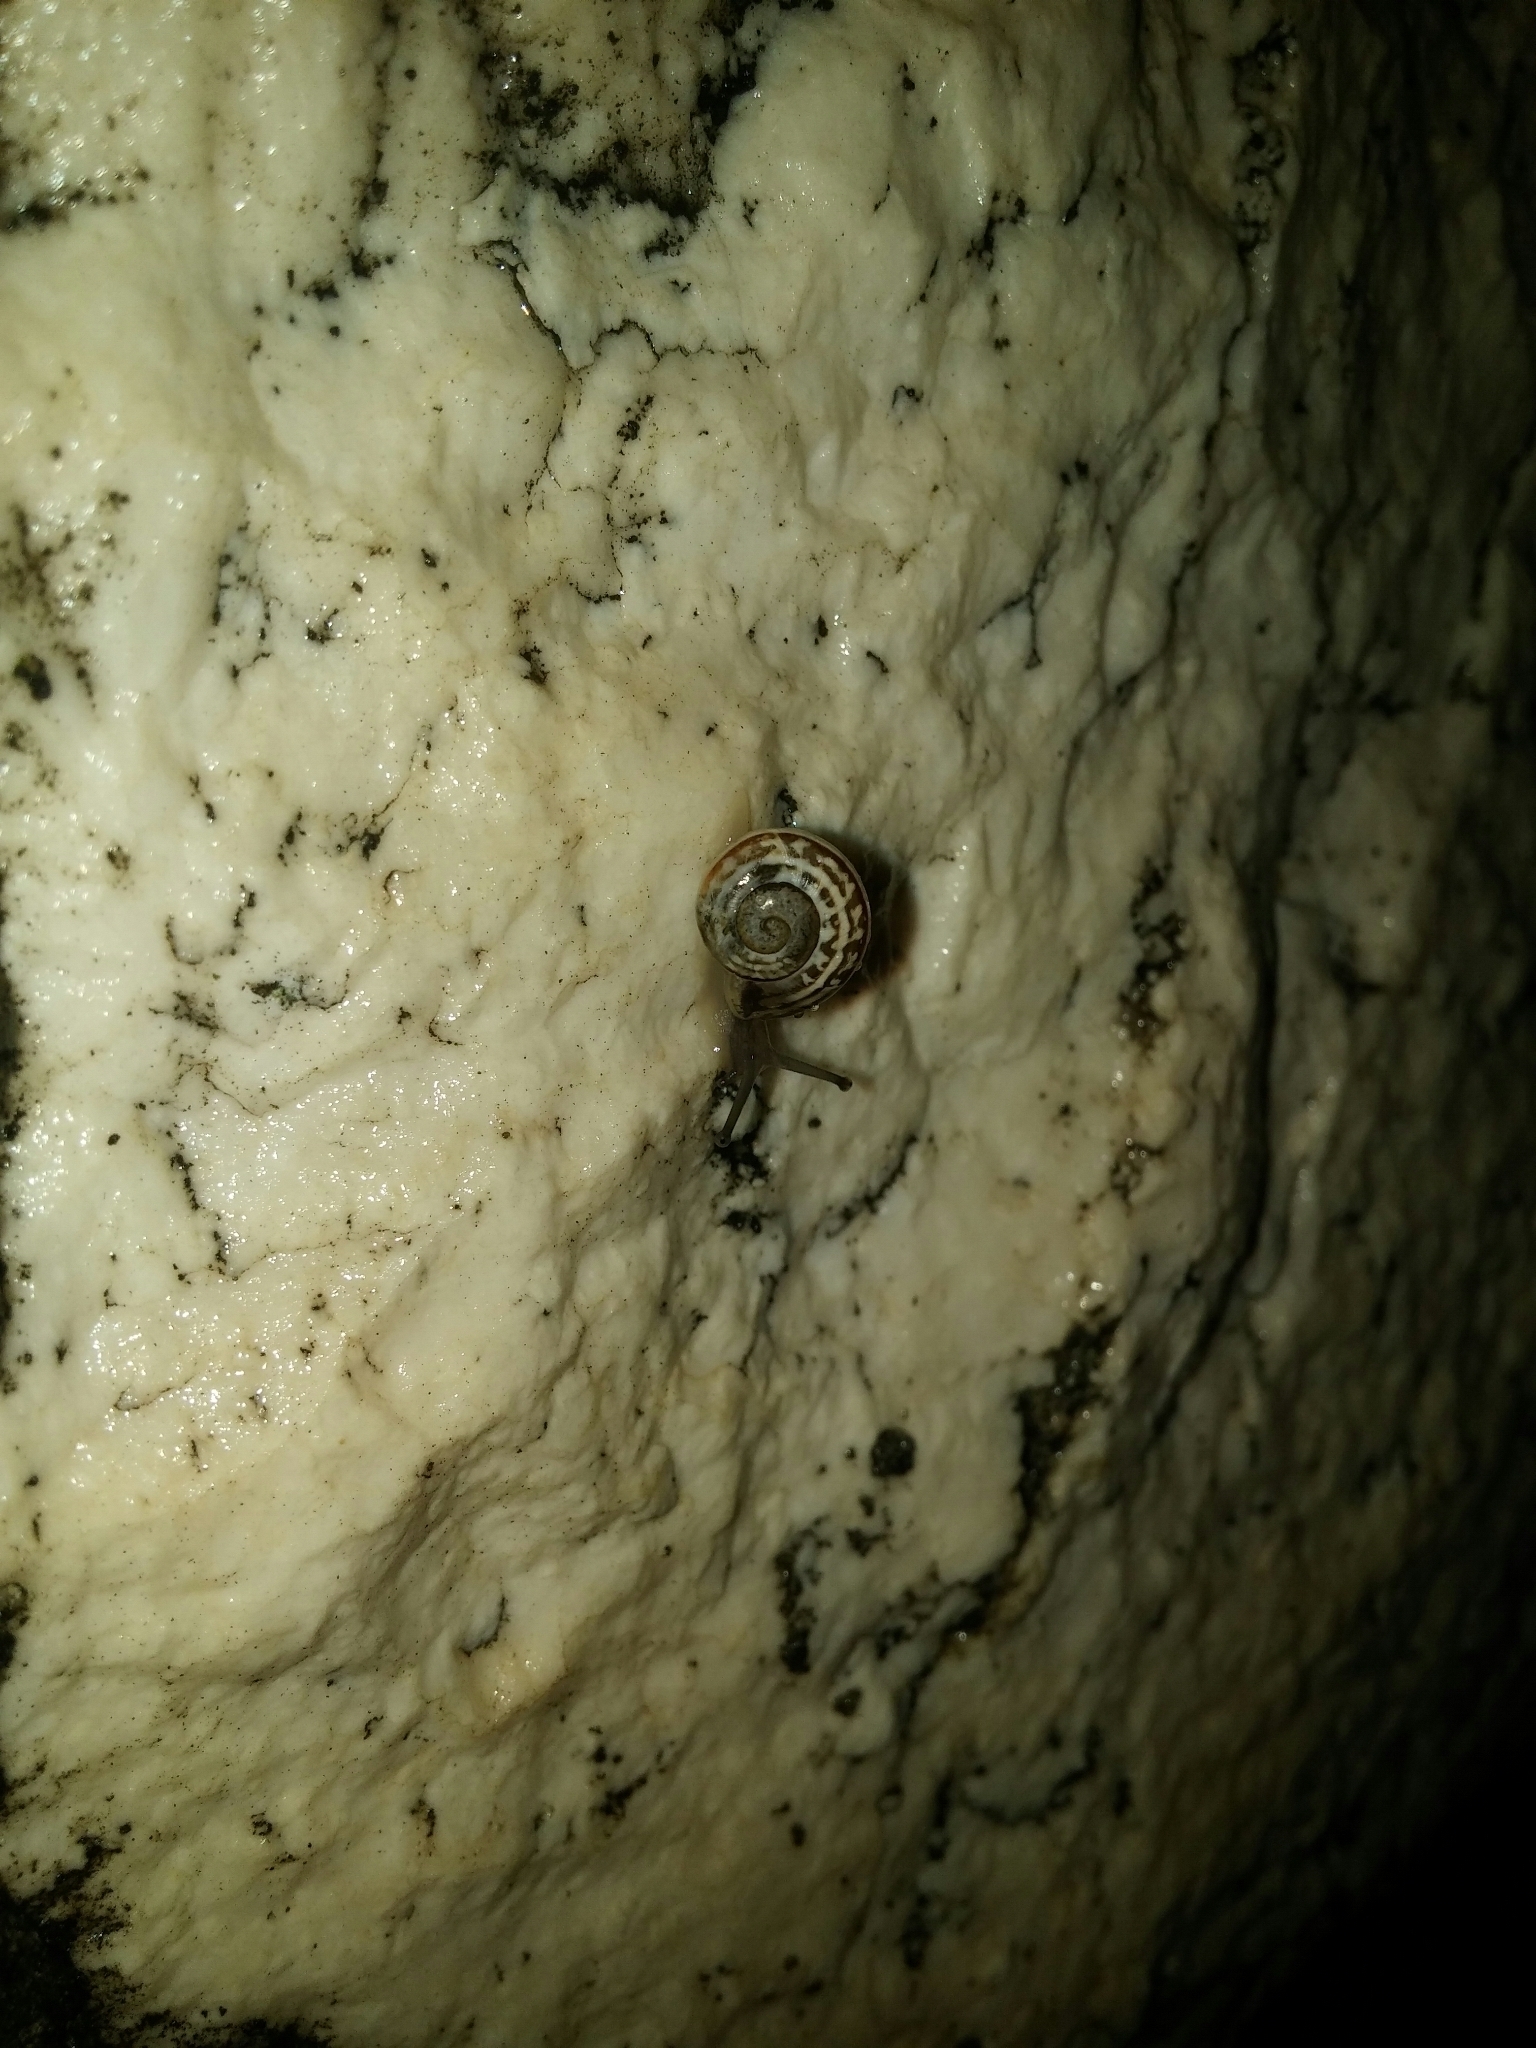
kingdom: Animalia
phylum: Mollusca
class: Gastropoda
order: Stylommatophora
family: Helicidae
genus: Eobania
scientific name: Eobania vermiculata
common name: Chocolateband snail
